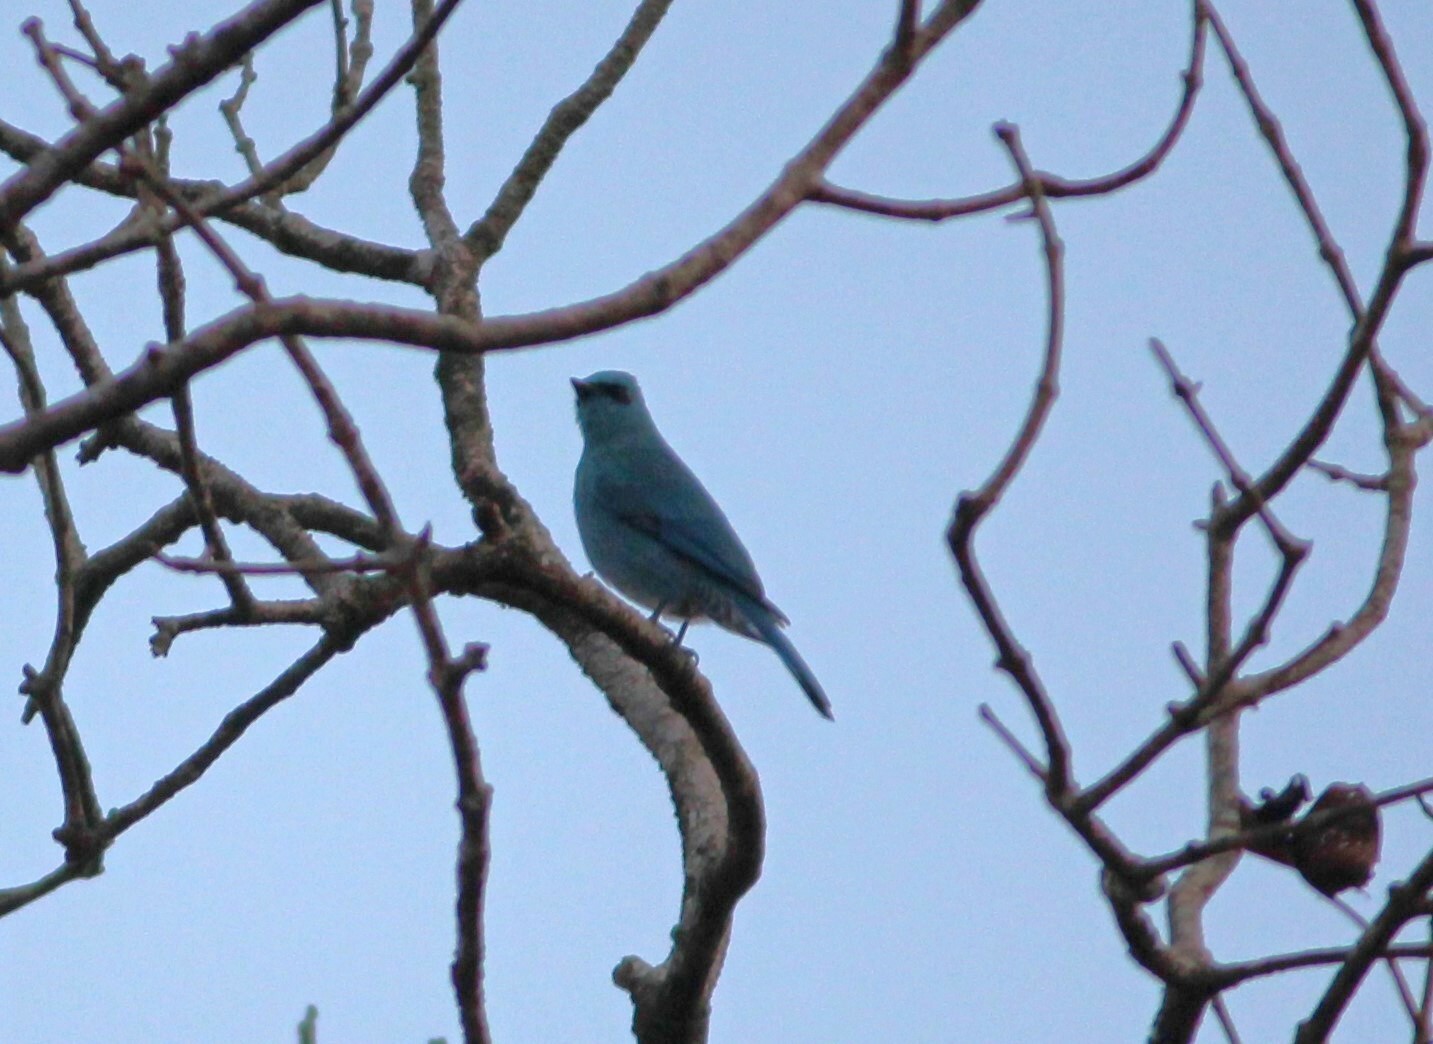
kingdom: Animalia
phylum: Chordata
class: Aves
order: Passeriformes
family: Muscicapidae
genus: Eumyias
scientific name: Eumyias thalassinus
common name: Verditer flycatcher
